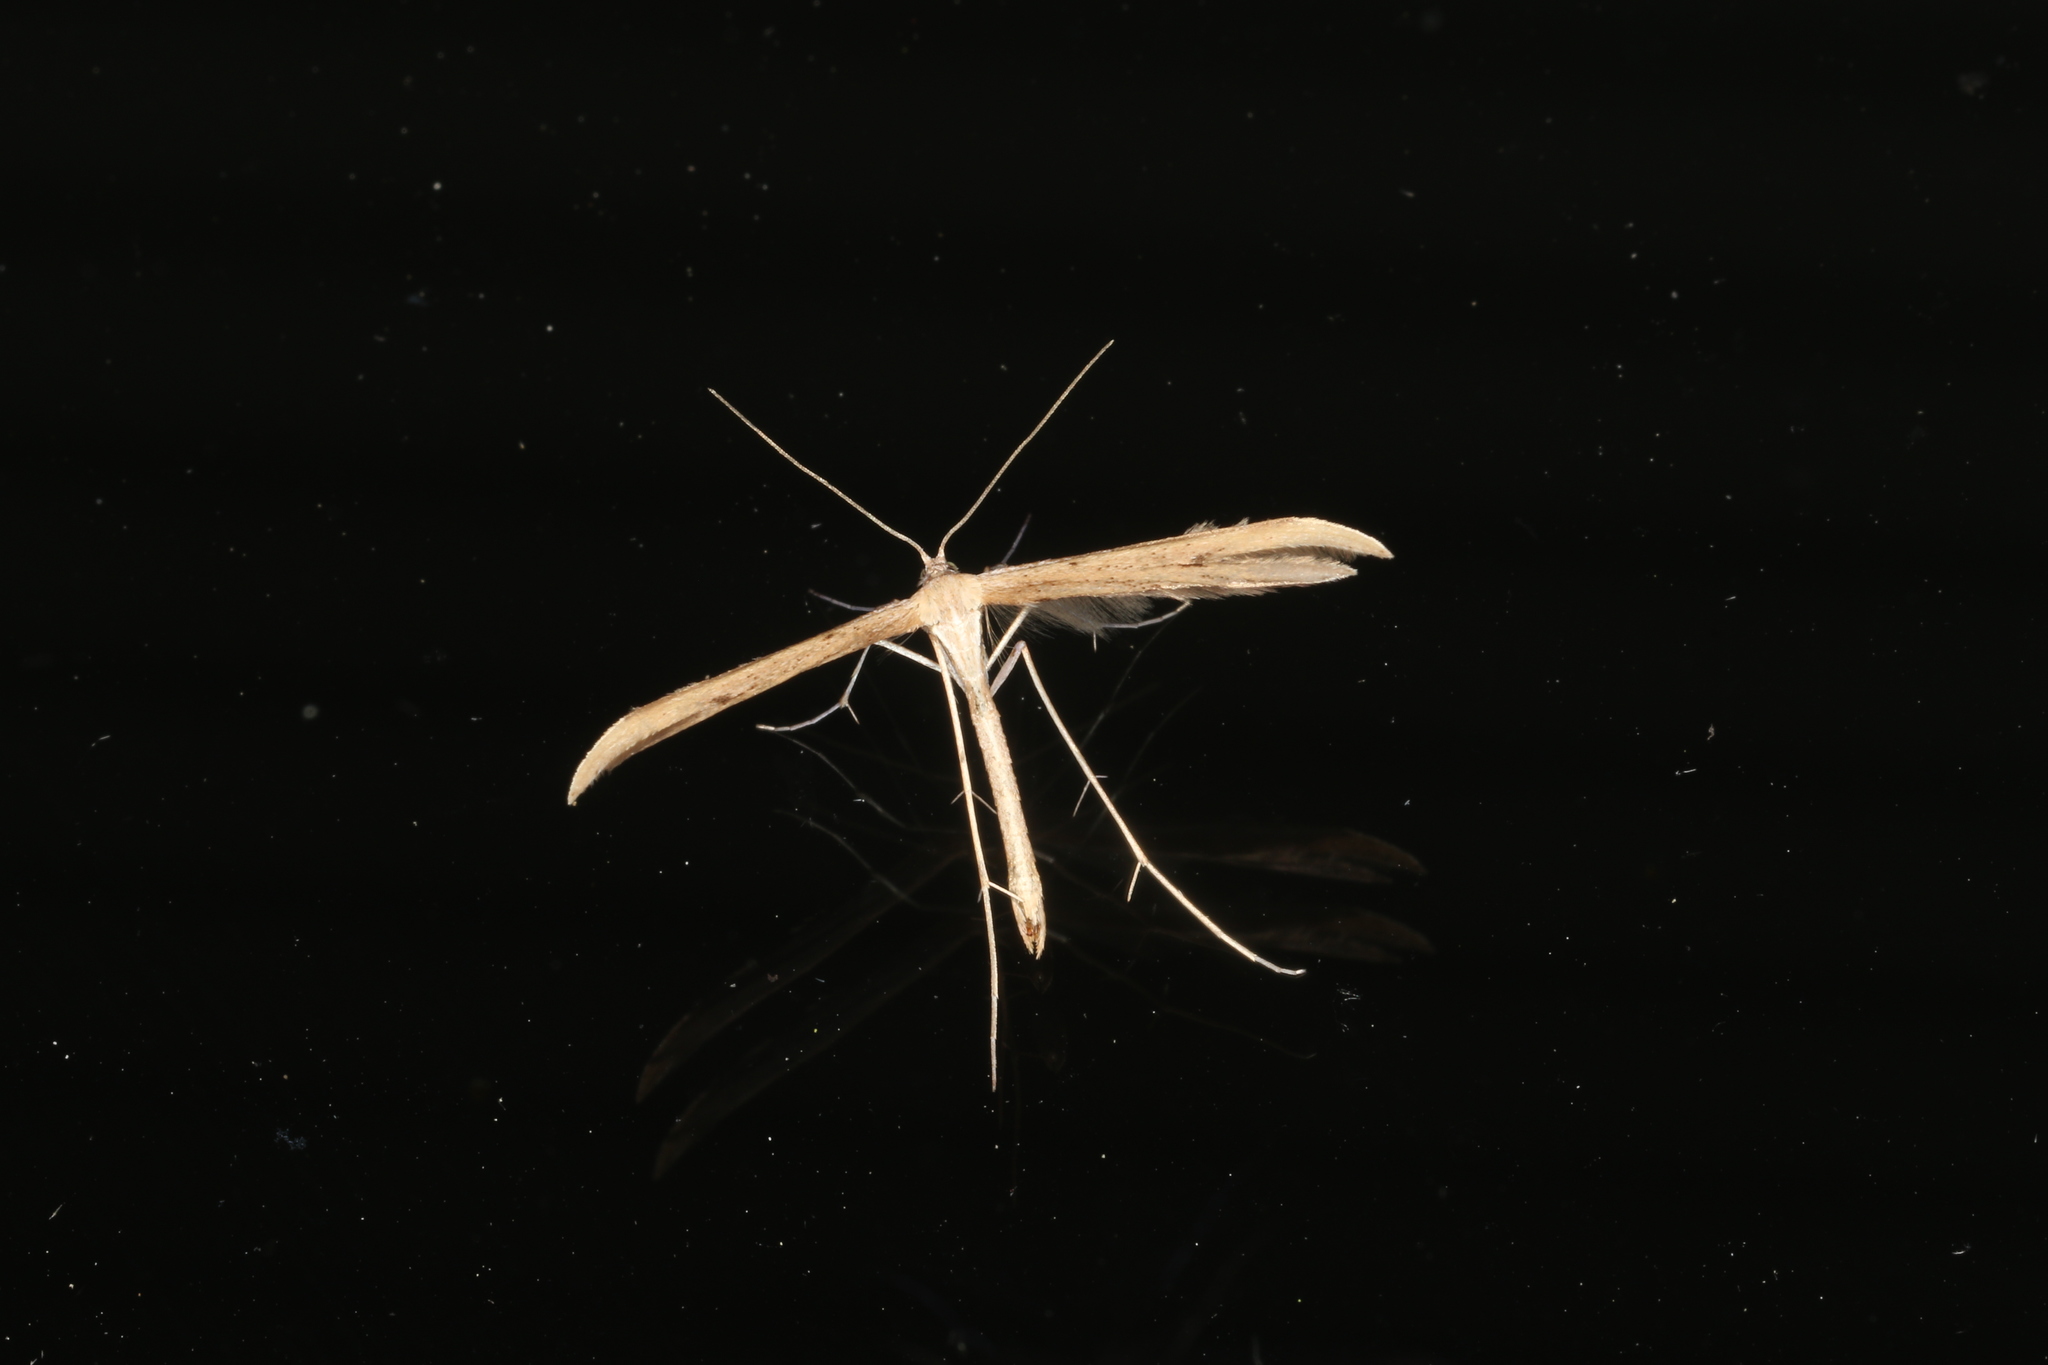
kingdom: Animalia
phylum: Arthropoda
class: Insecta
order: Lepidoptera
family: Pterophoridae
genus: Emmelina
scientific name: Emmelina monodactyla
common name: Common plume
